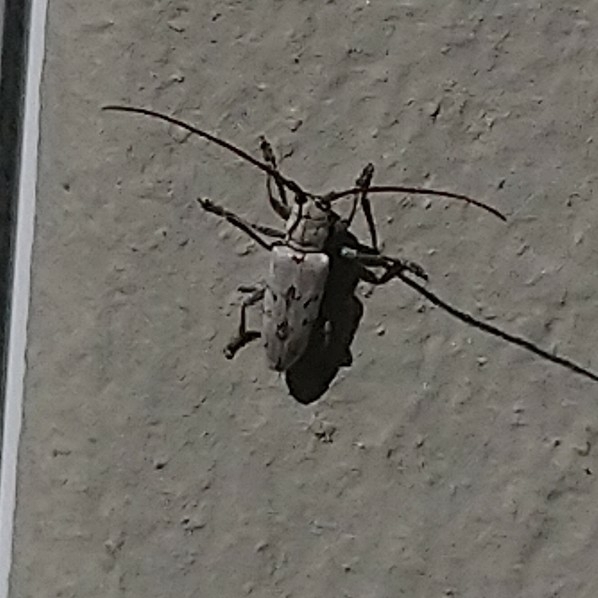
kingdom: Animalia
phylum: Arthropoda
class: Insecta
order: Coleoptera
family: Cerambycidae
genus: Prosopocera
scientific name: Prosopocera maculosa
